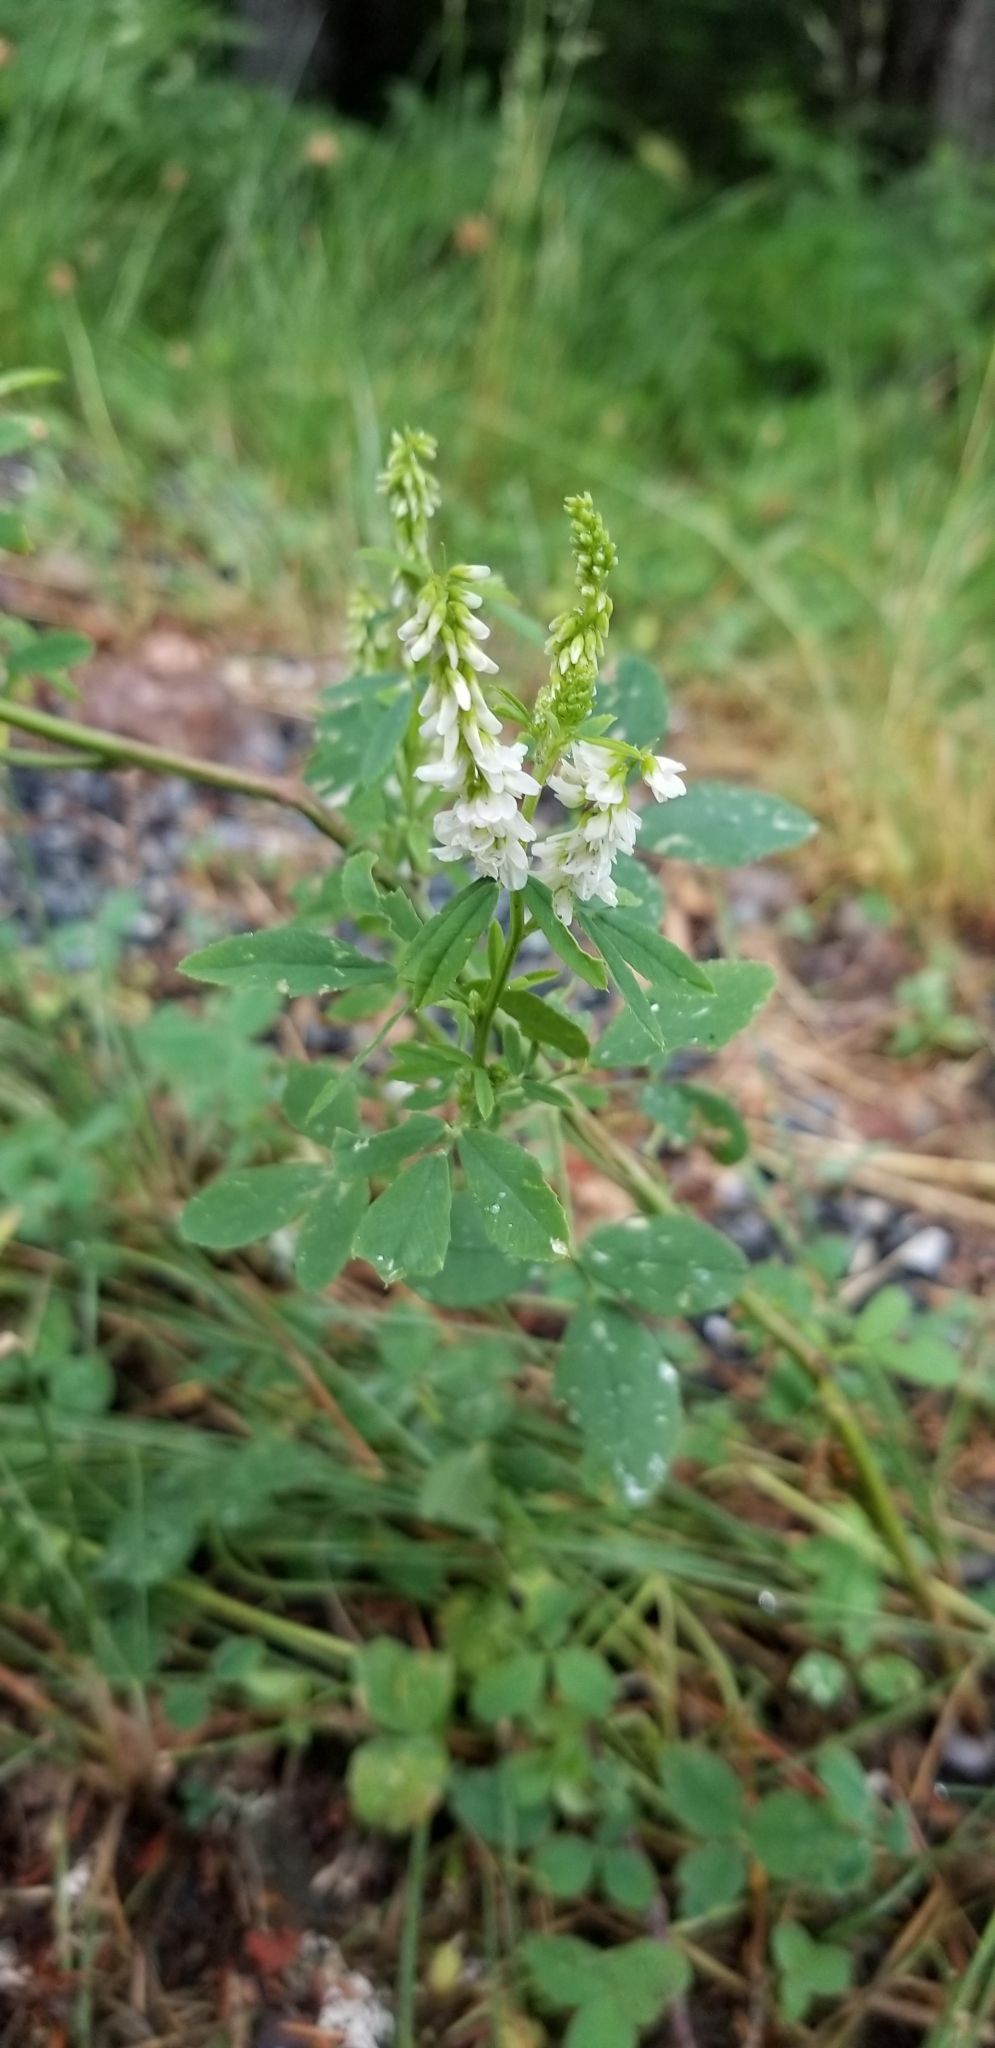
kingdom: Plantae
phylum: Tracheophyta
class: Magnoliopsida
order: Fabales
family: Fabaceae
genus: Melilotus
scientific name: Melilotus albus
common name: White melilot
